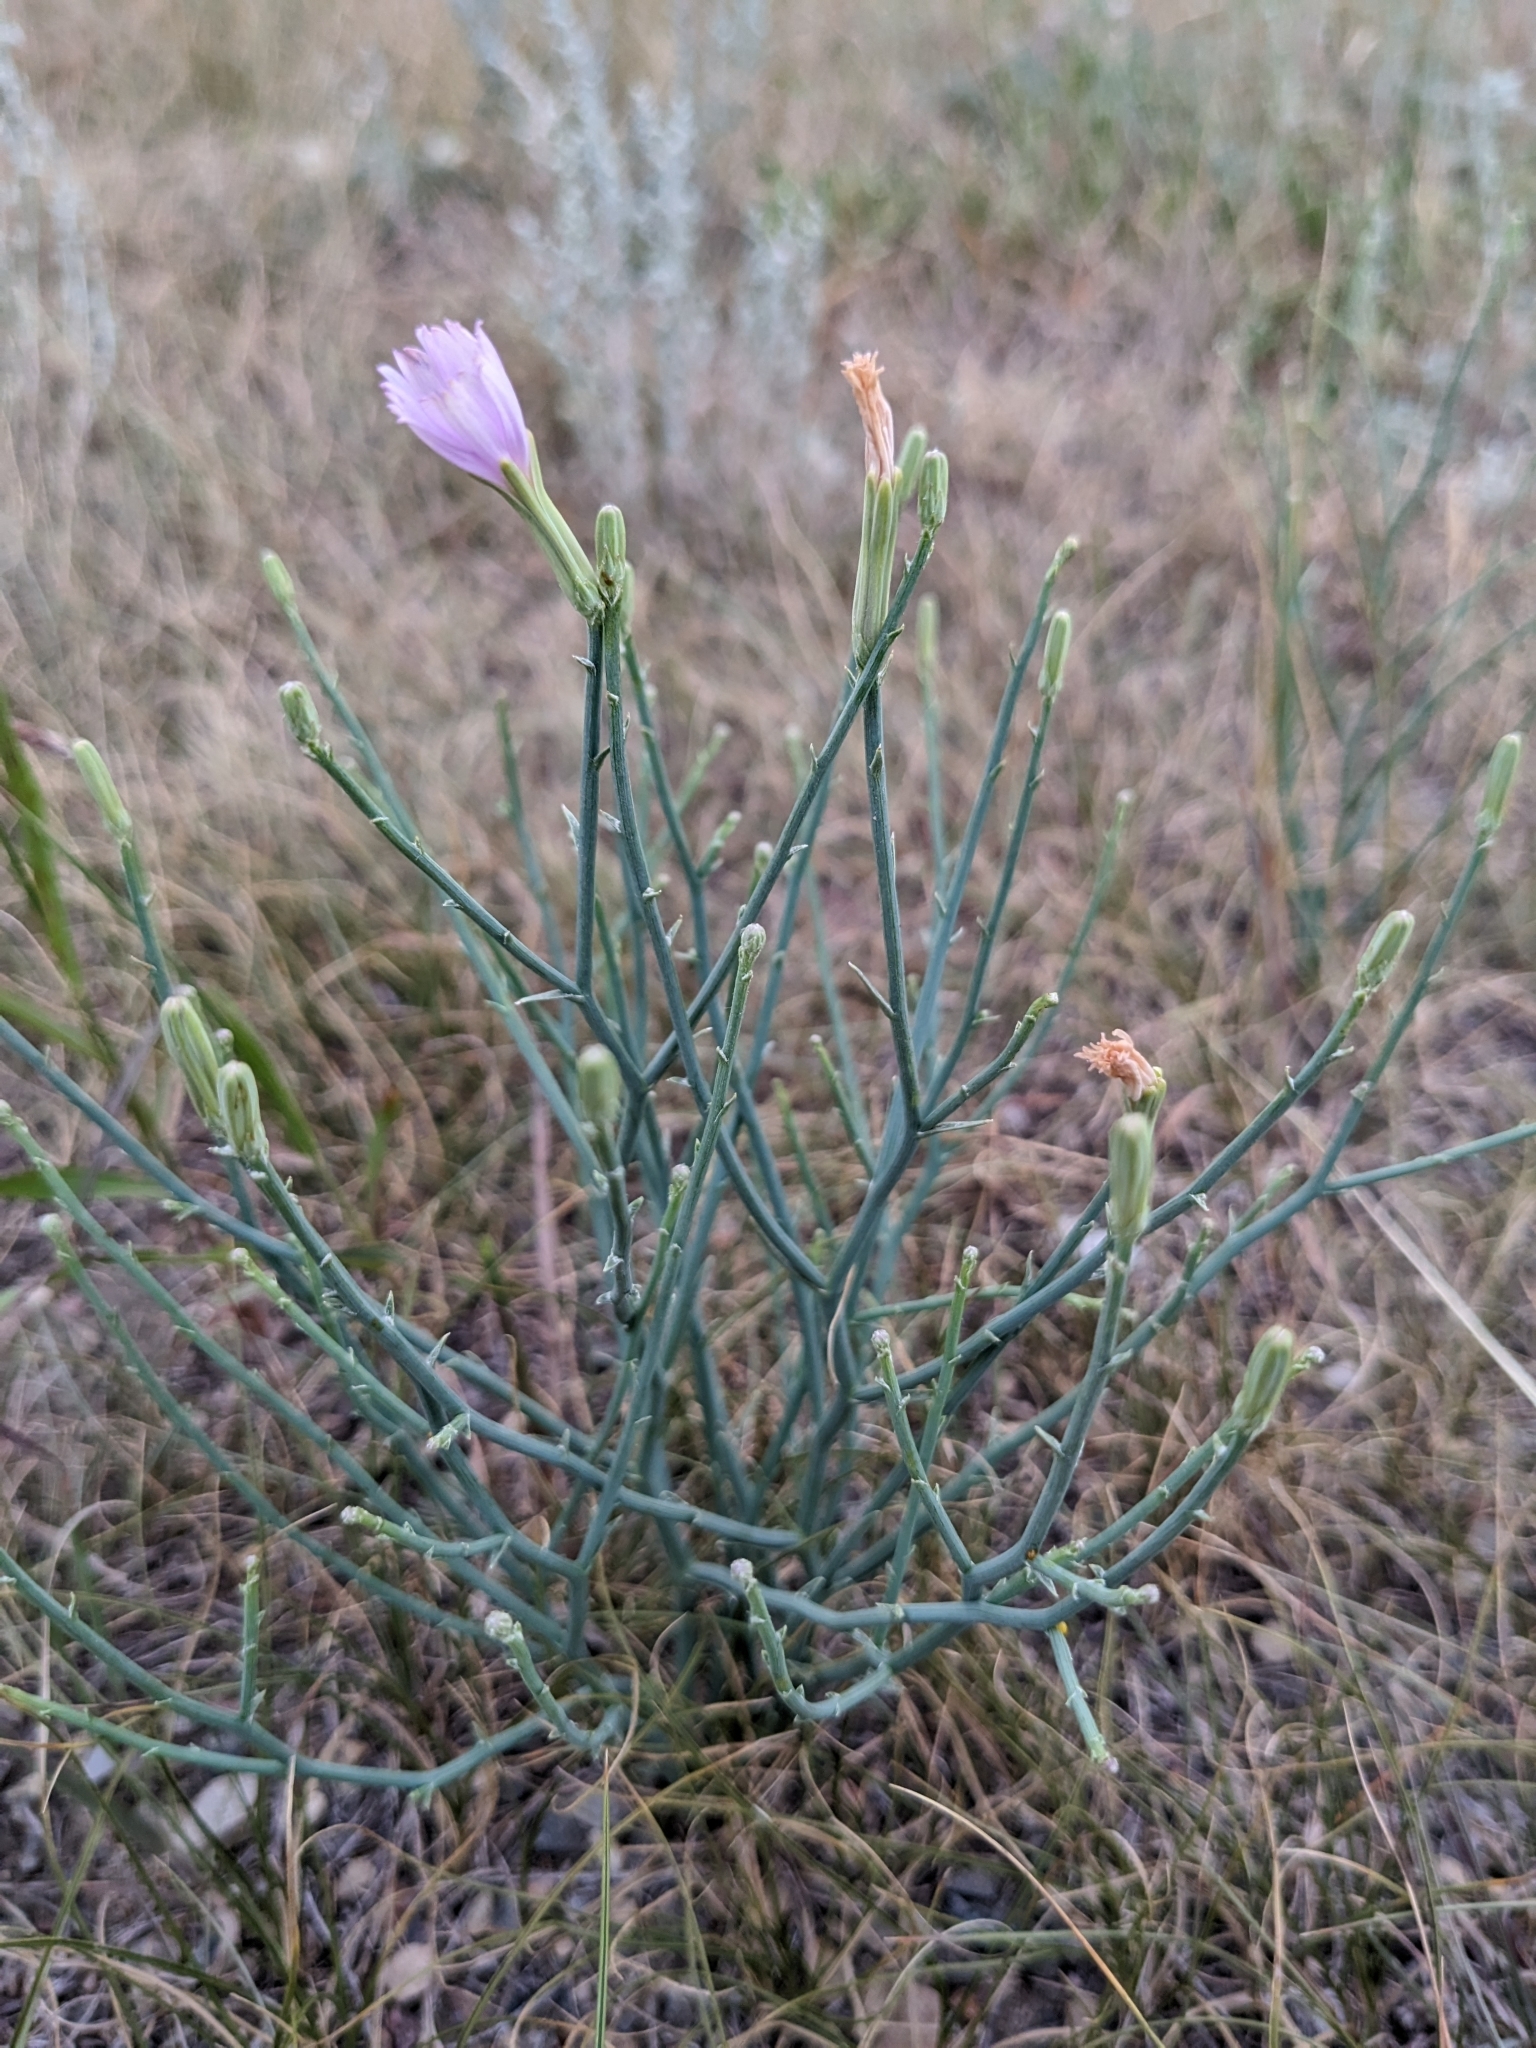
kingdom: Plantae
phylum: Tracheophyta
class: Magnoliopsida
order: Asterales
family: Asteraceae
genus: Lygodesmia
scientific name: Lygodesmia juncea
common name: Common skeletonweed
